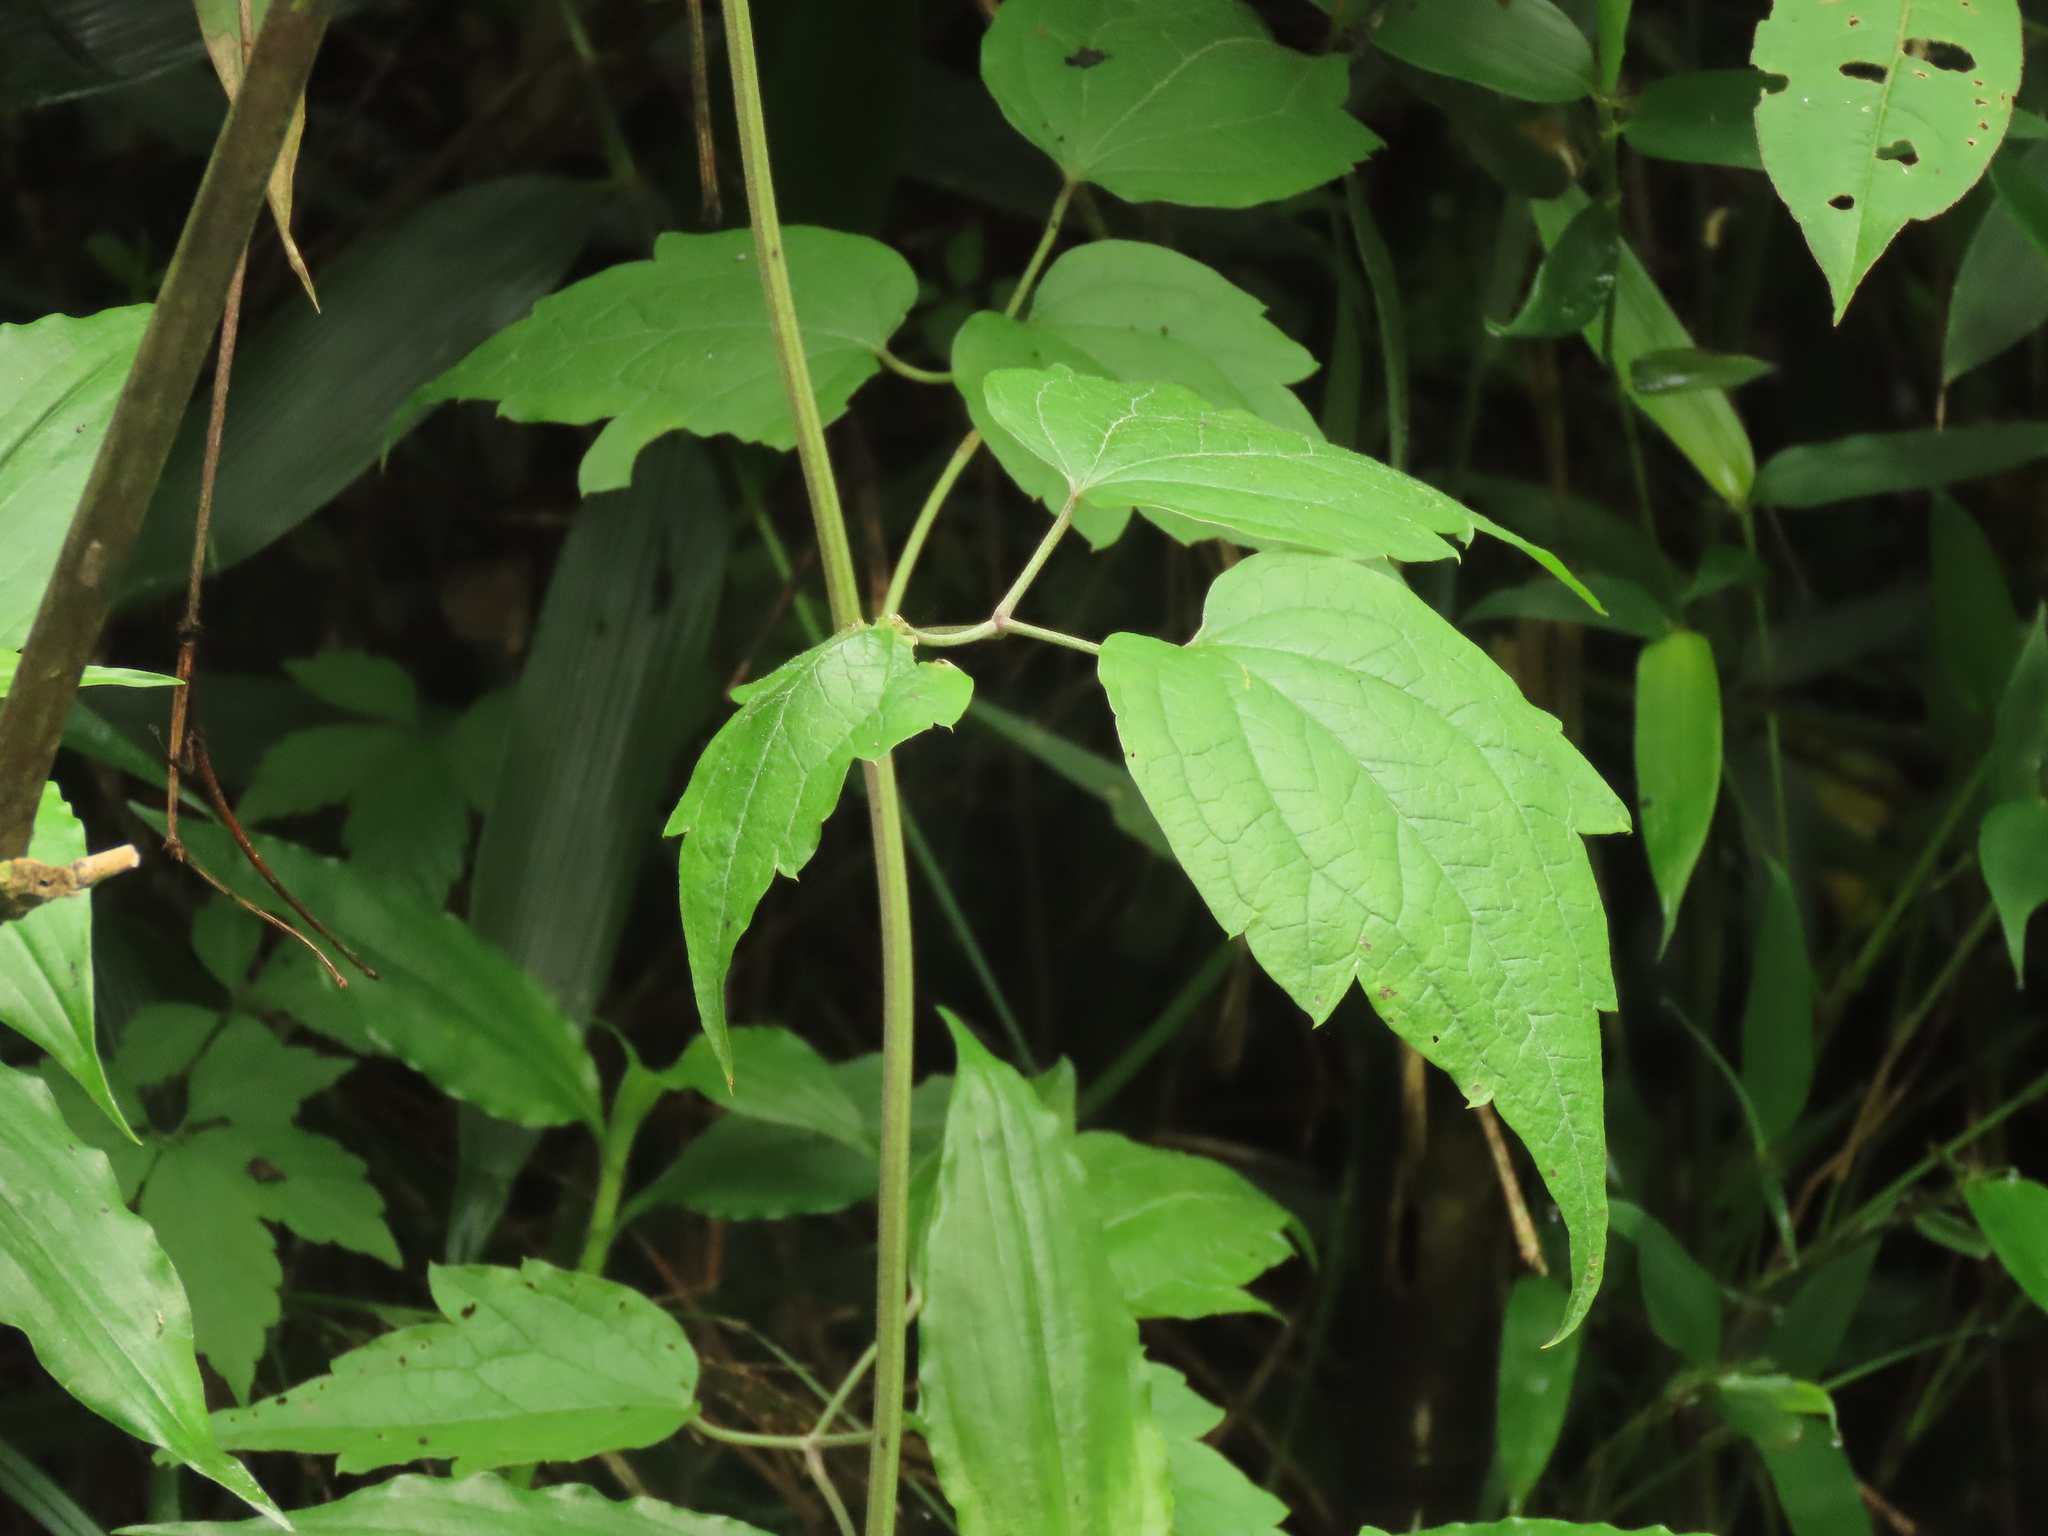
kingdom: Plantae
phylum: Tracheophyta
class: Magnoliopsida
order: Ranunculales
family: Ranunculaceae
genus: Clematis
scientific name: Clematis grata
